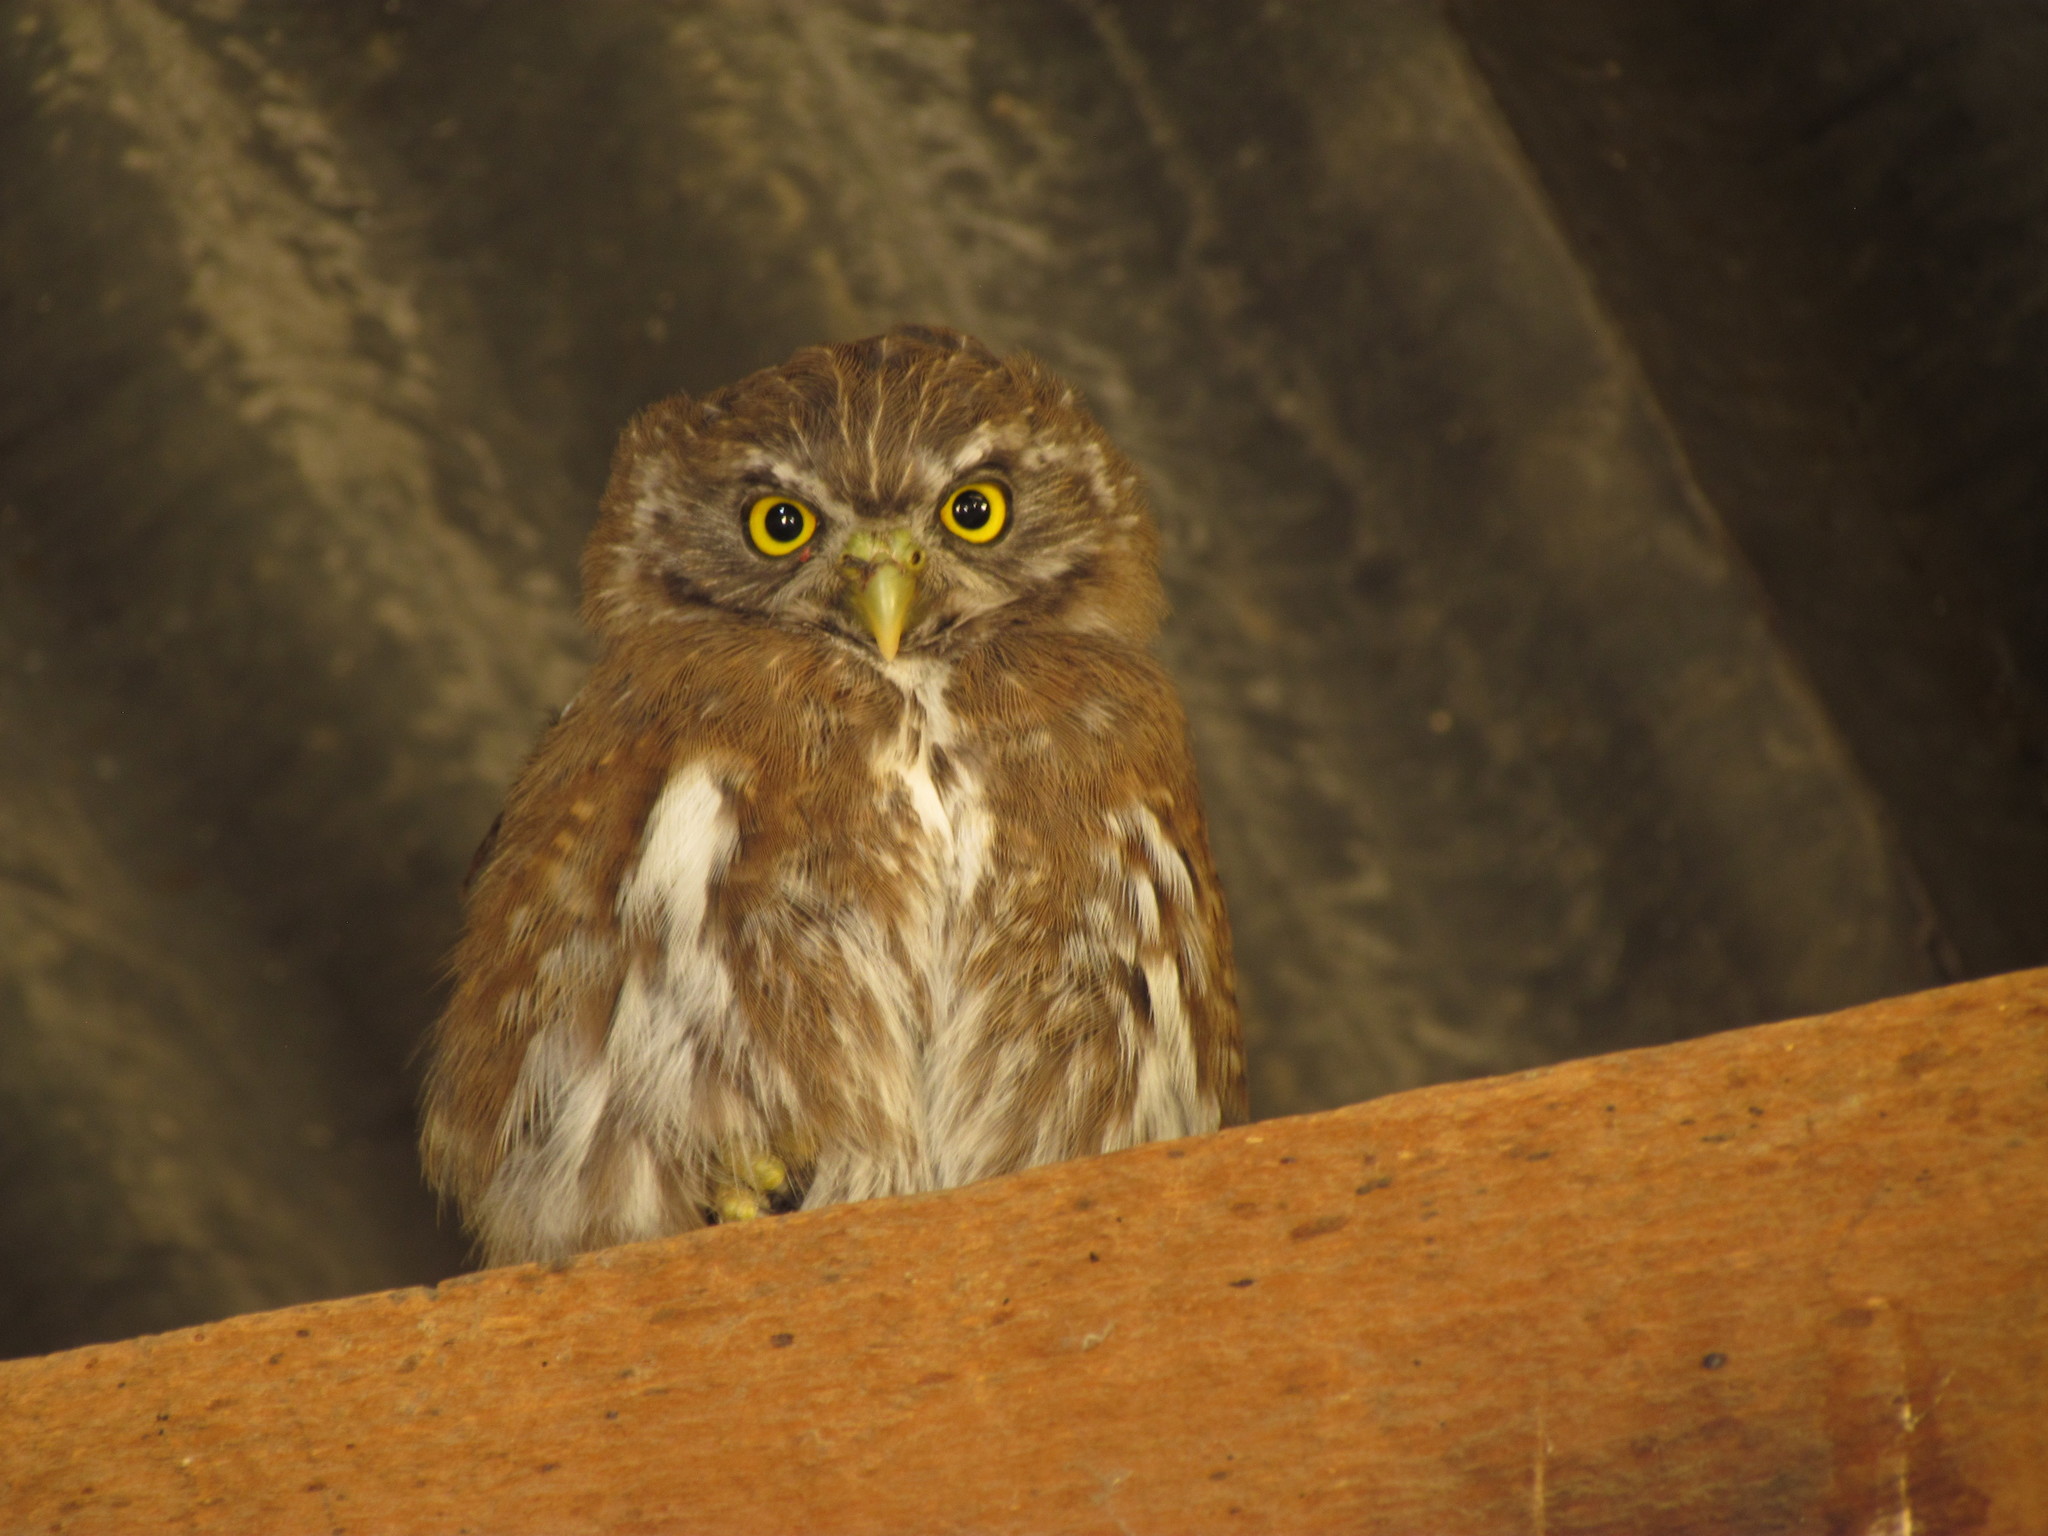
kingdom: Animalia
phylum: Chordata
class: Aves
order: Strigiformes
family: Strigidae
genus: Glaucidium
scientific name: Glaucidium nana
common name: Austral pygmy-owl
